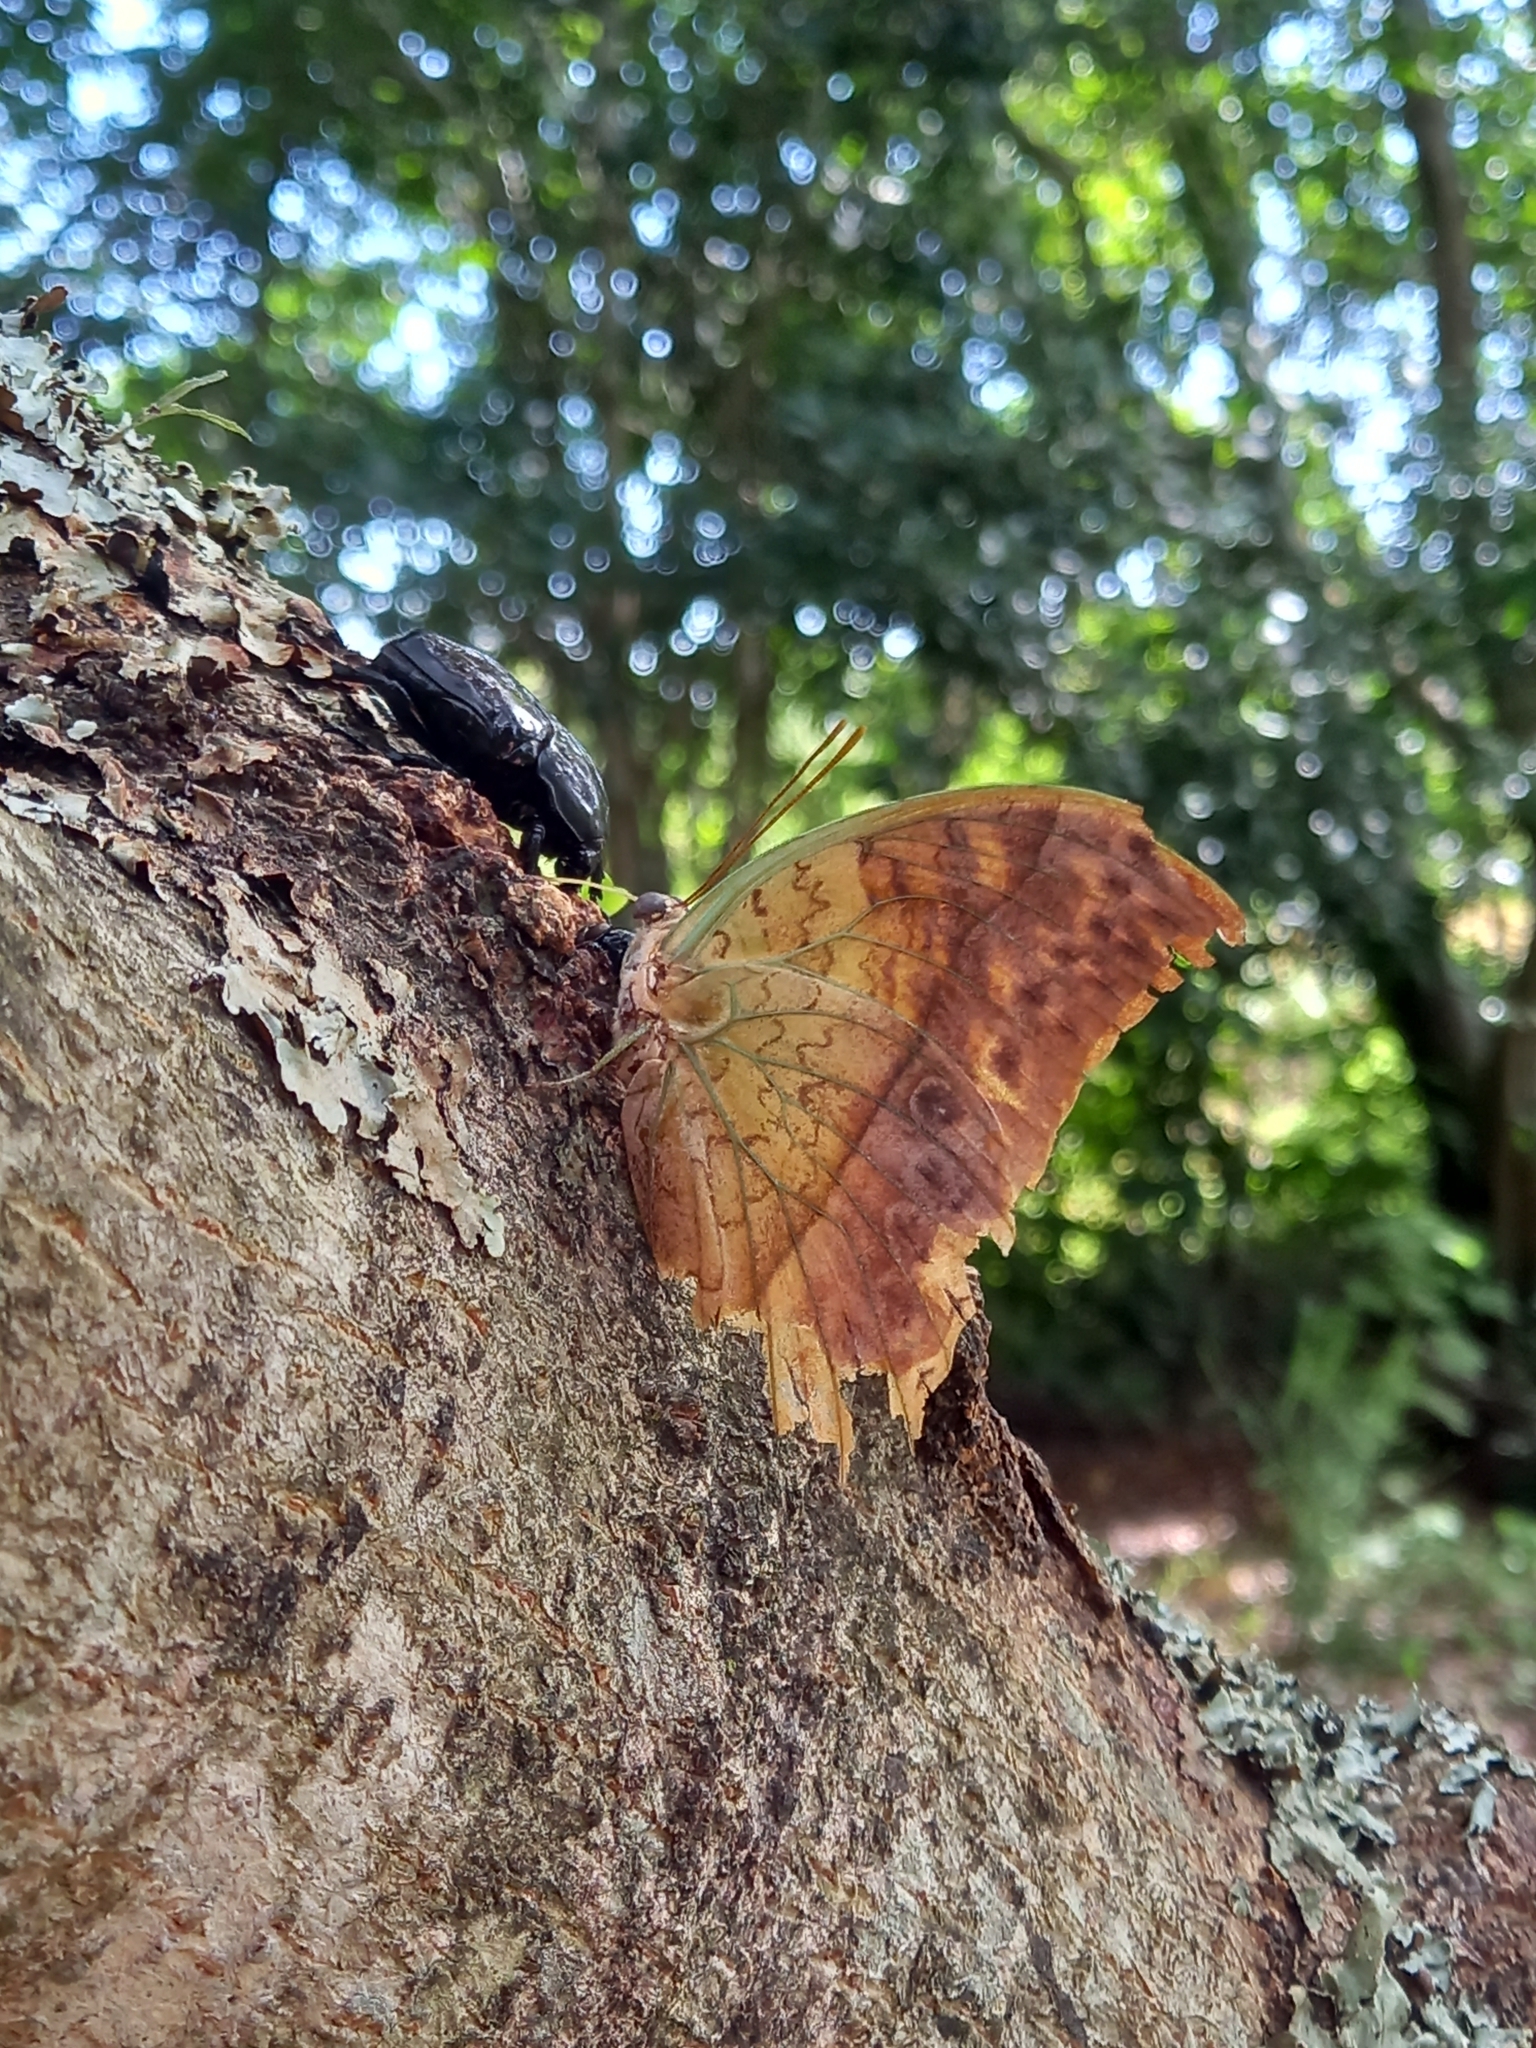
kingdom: Animalia
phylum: Arthropoda
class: Insecta
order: Lepidoptera
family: Nymphalidae
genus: Charaxes
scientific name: Charaxes varanes
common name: Common pearl charaxes
